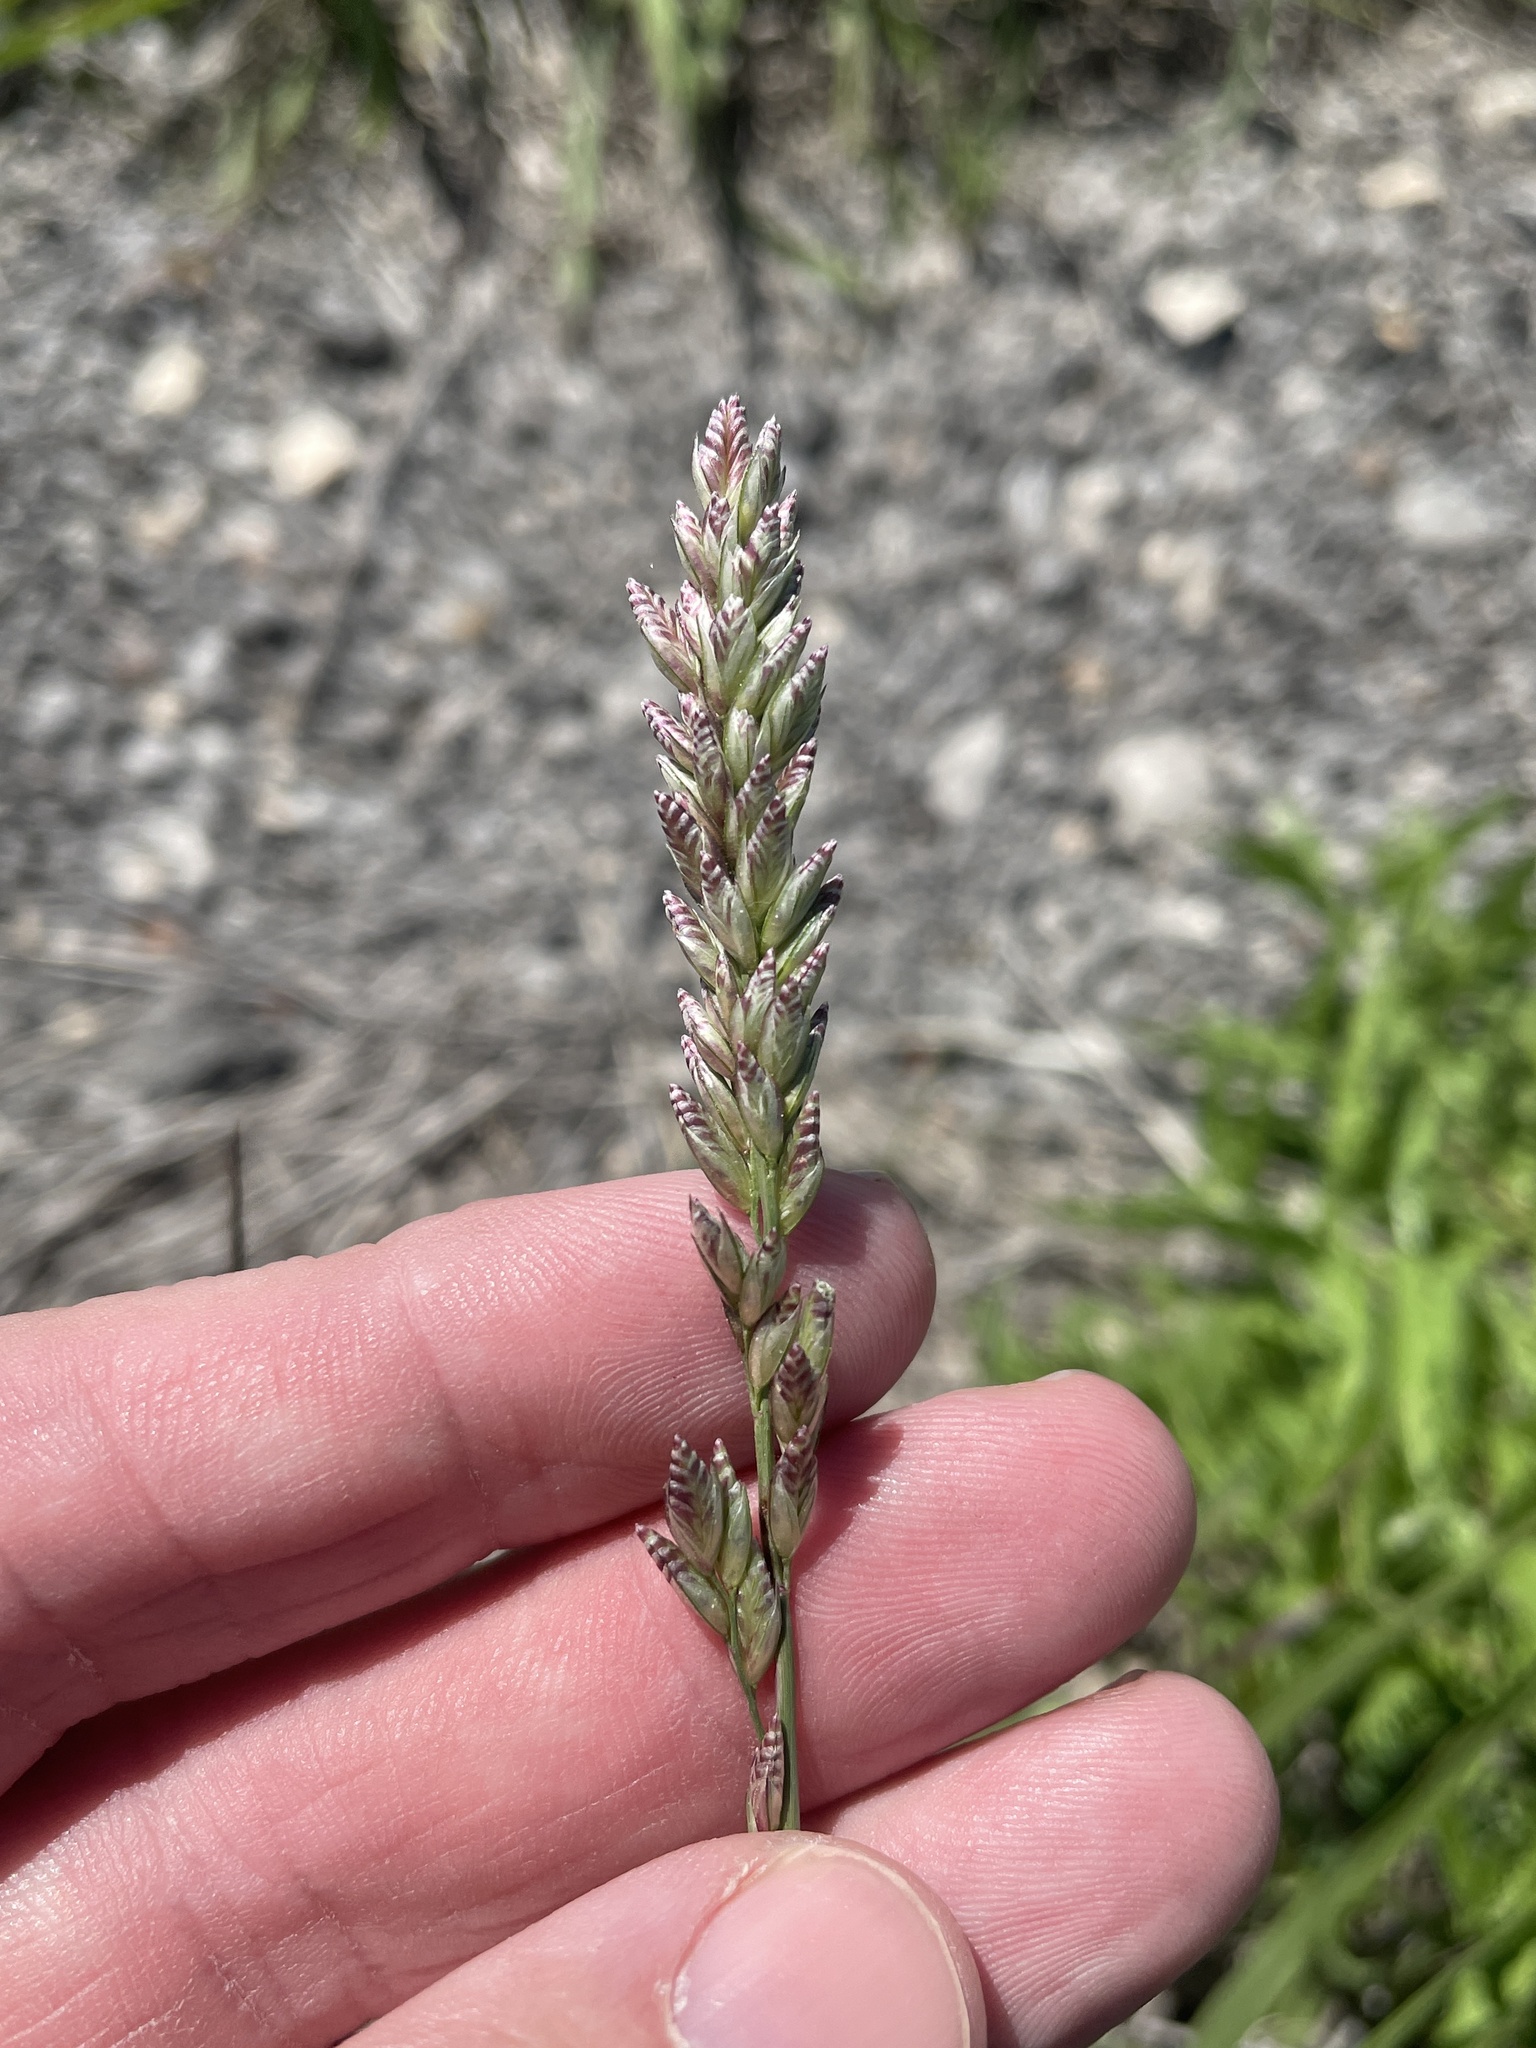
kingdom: Plantae
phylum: Tracheophyta
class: Liliopsida
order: Poales
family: Poaceae
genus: Tridens
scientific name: Tridens albescens
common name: White tridens
